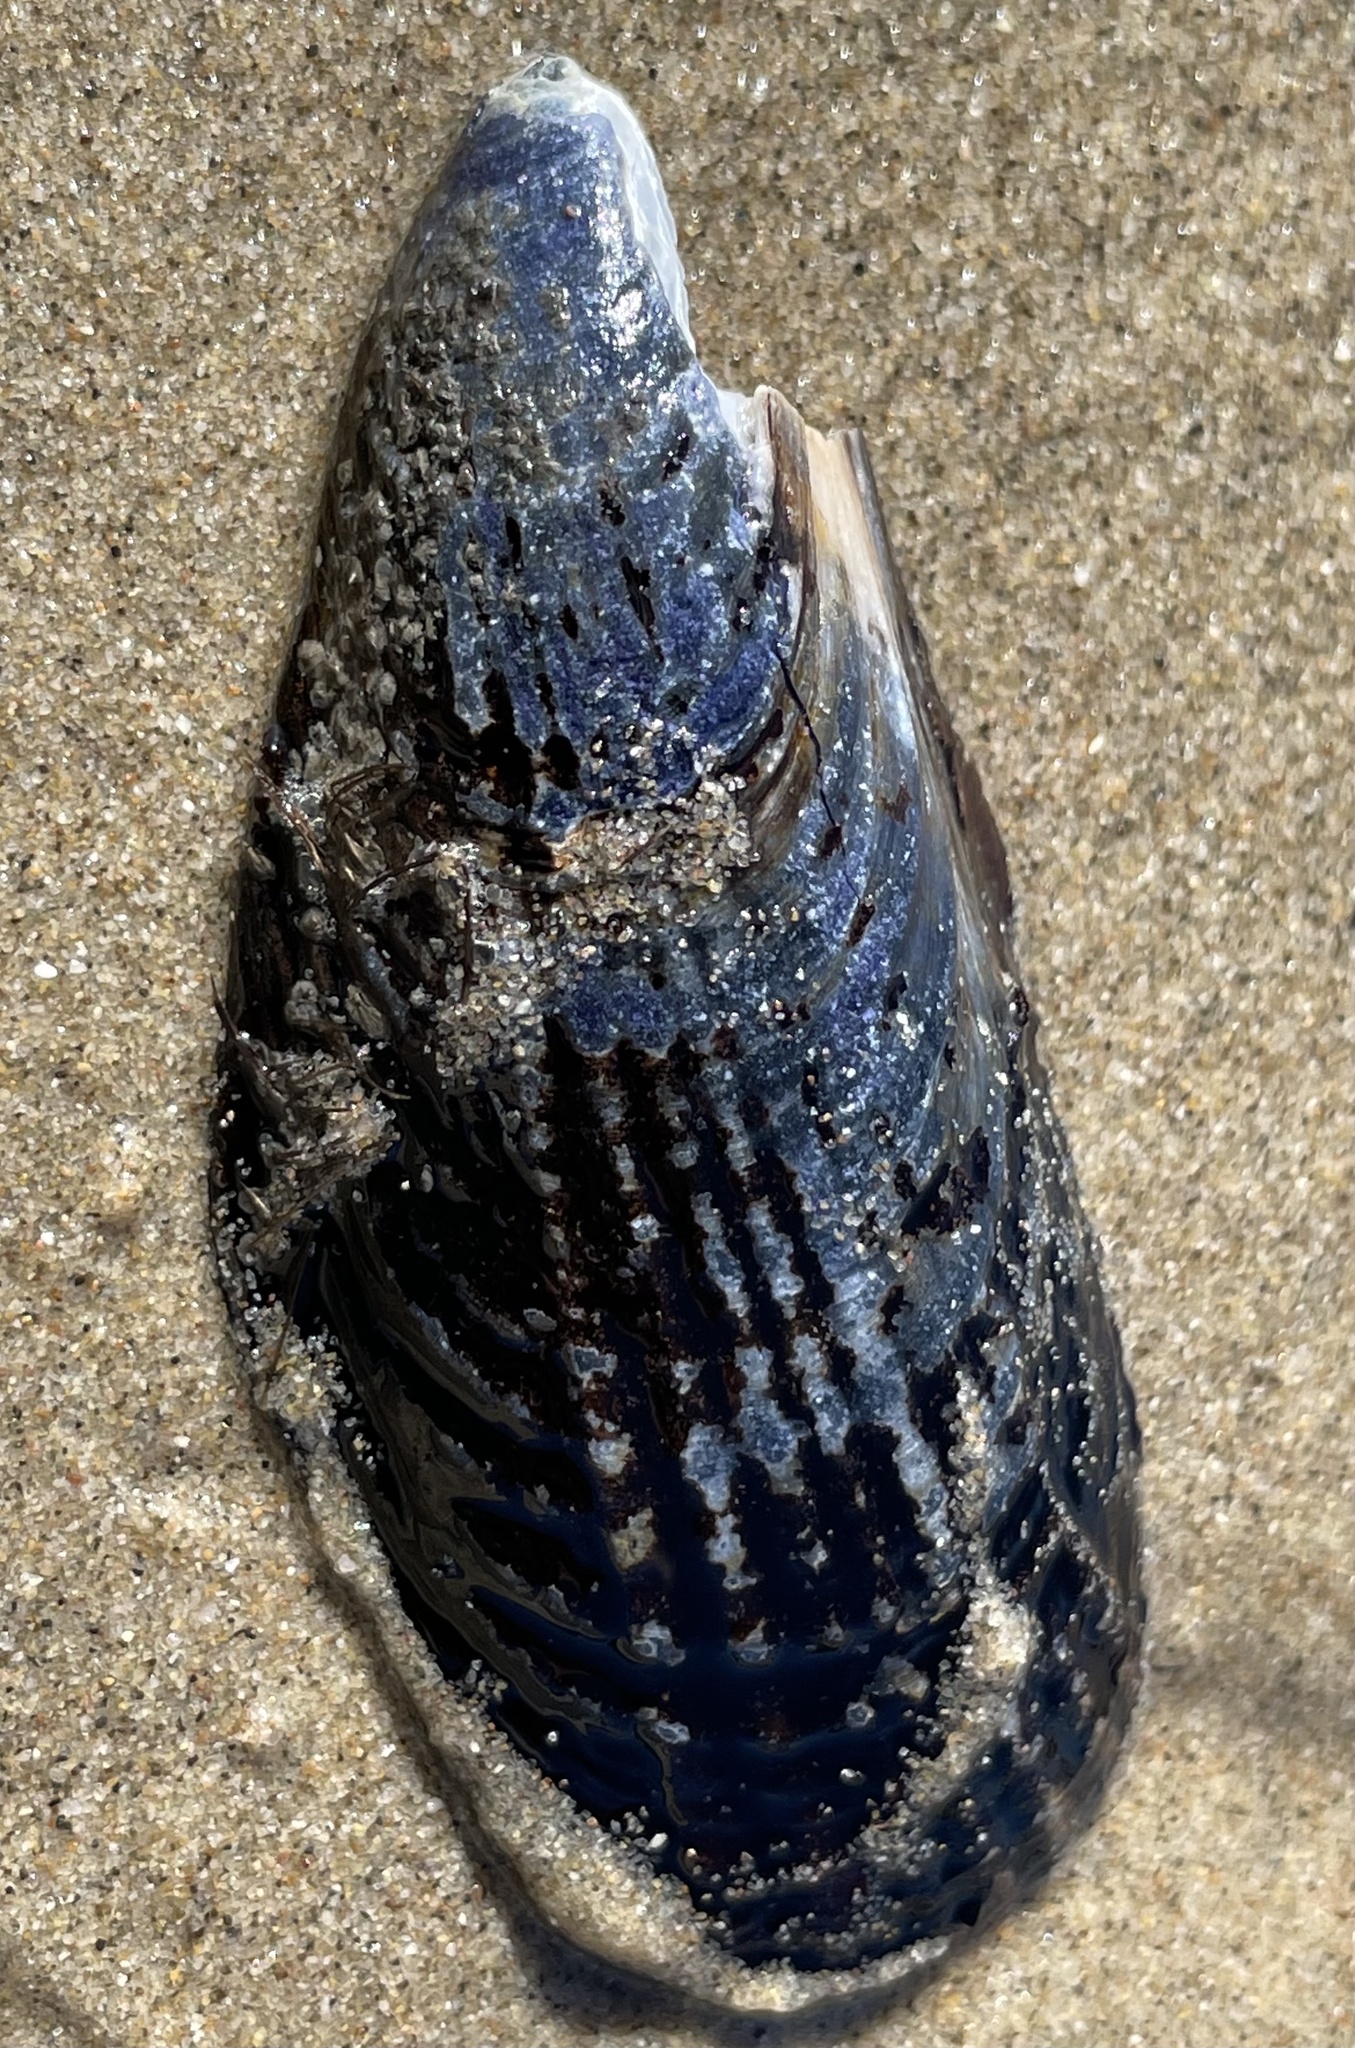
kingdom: Animalia
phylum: Mollusca
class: Bivalvia
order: Mytilida
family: Mytilidae
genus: Mytilus
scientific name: Mytilus californianus
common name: California mussel
